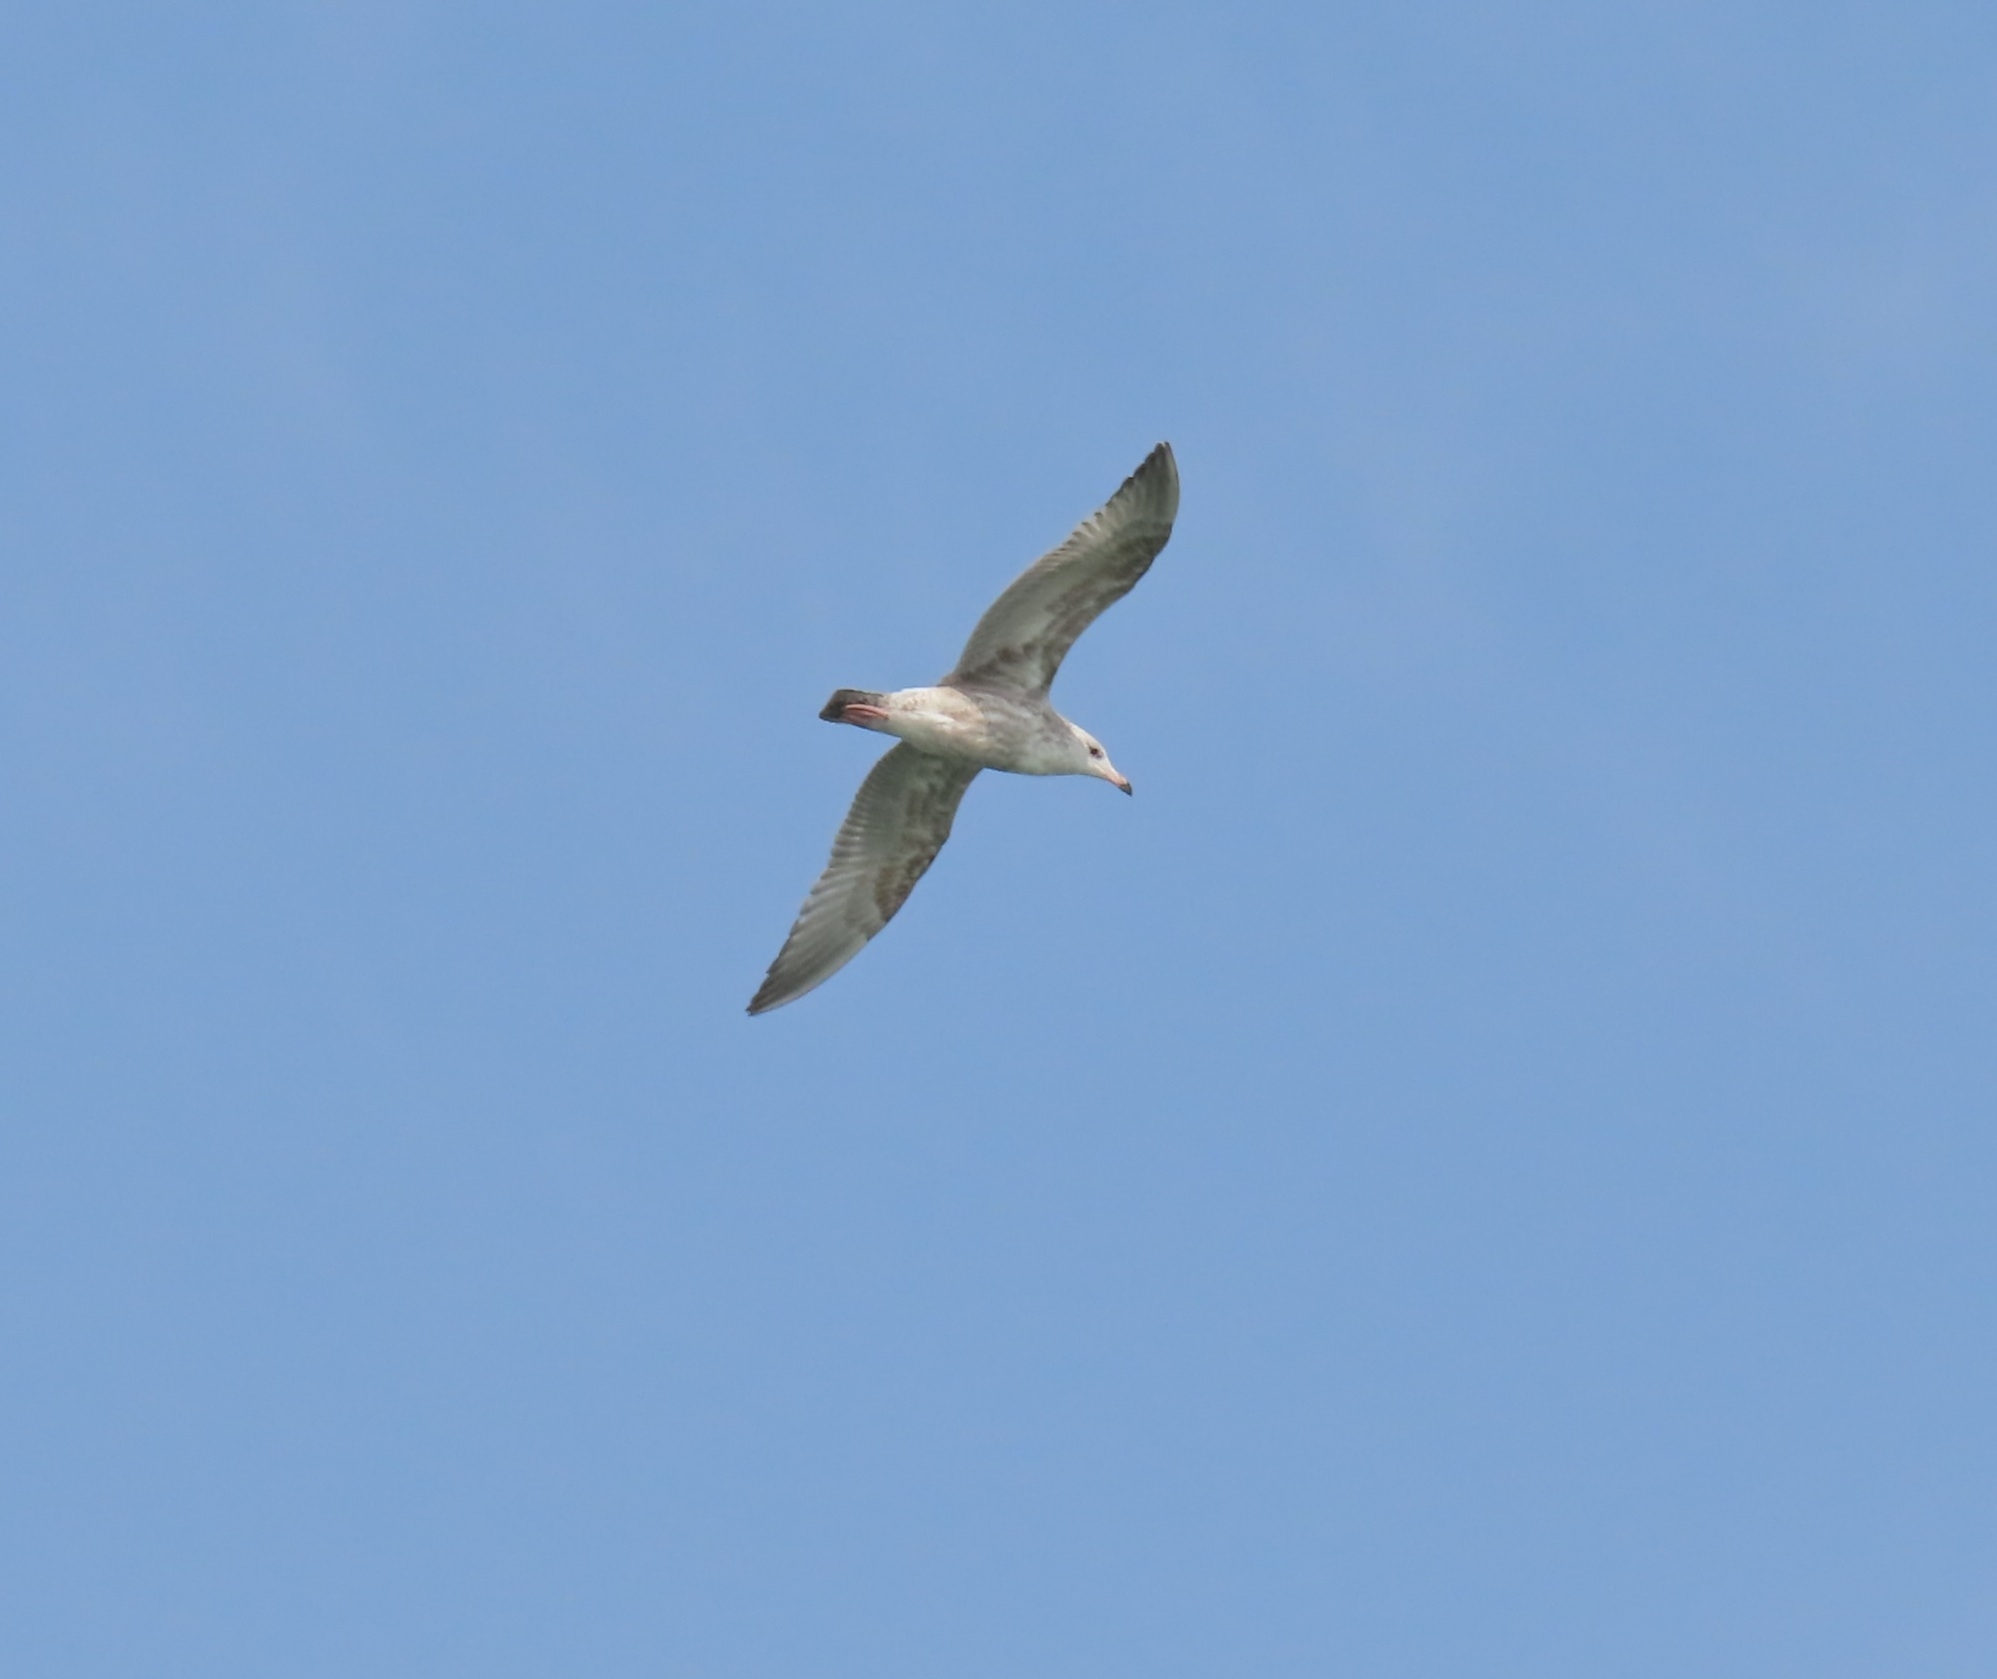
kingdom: Animalia
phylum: Chordata
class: Aves
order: Charadriiformes
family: Laridae
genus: Larus
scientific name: Larus argentatus
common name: Herring gull
